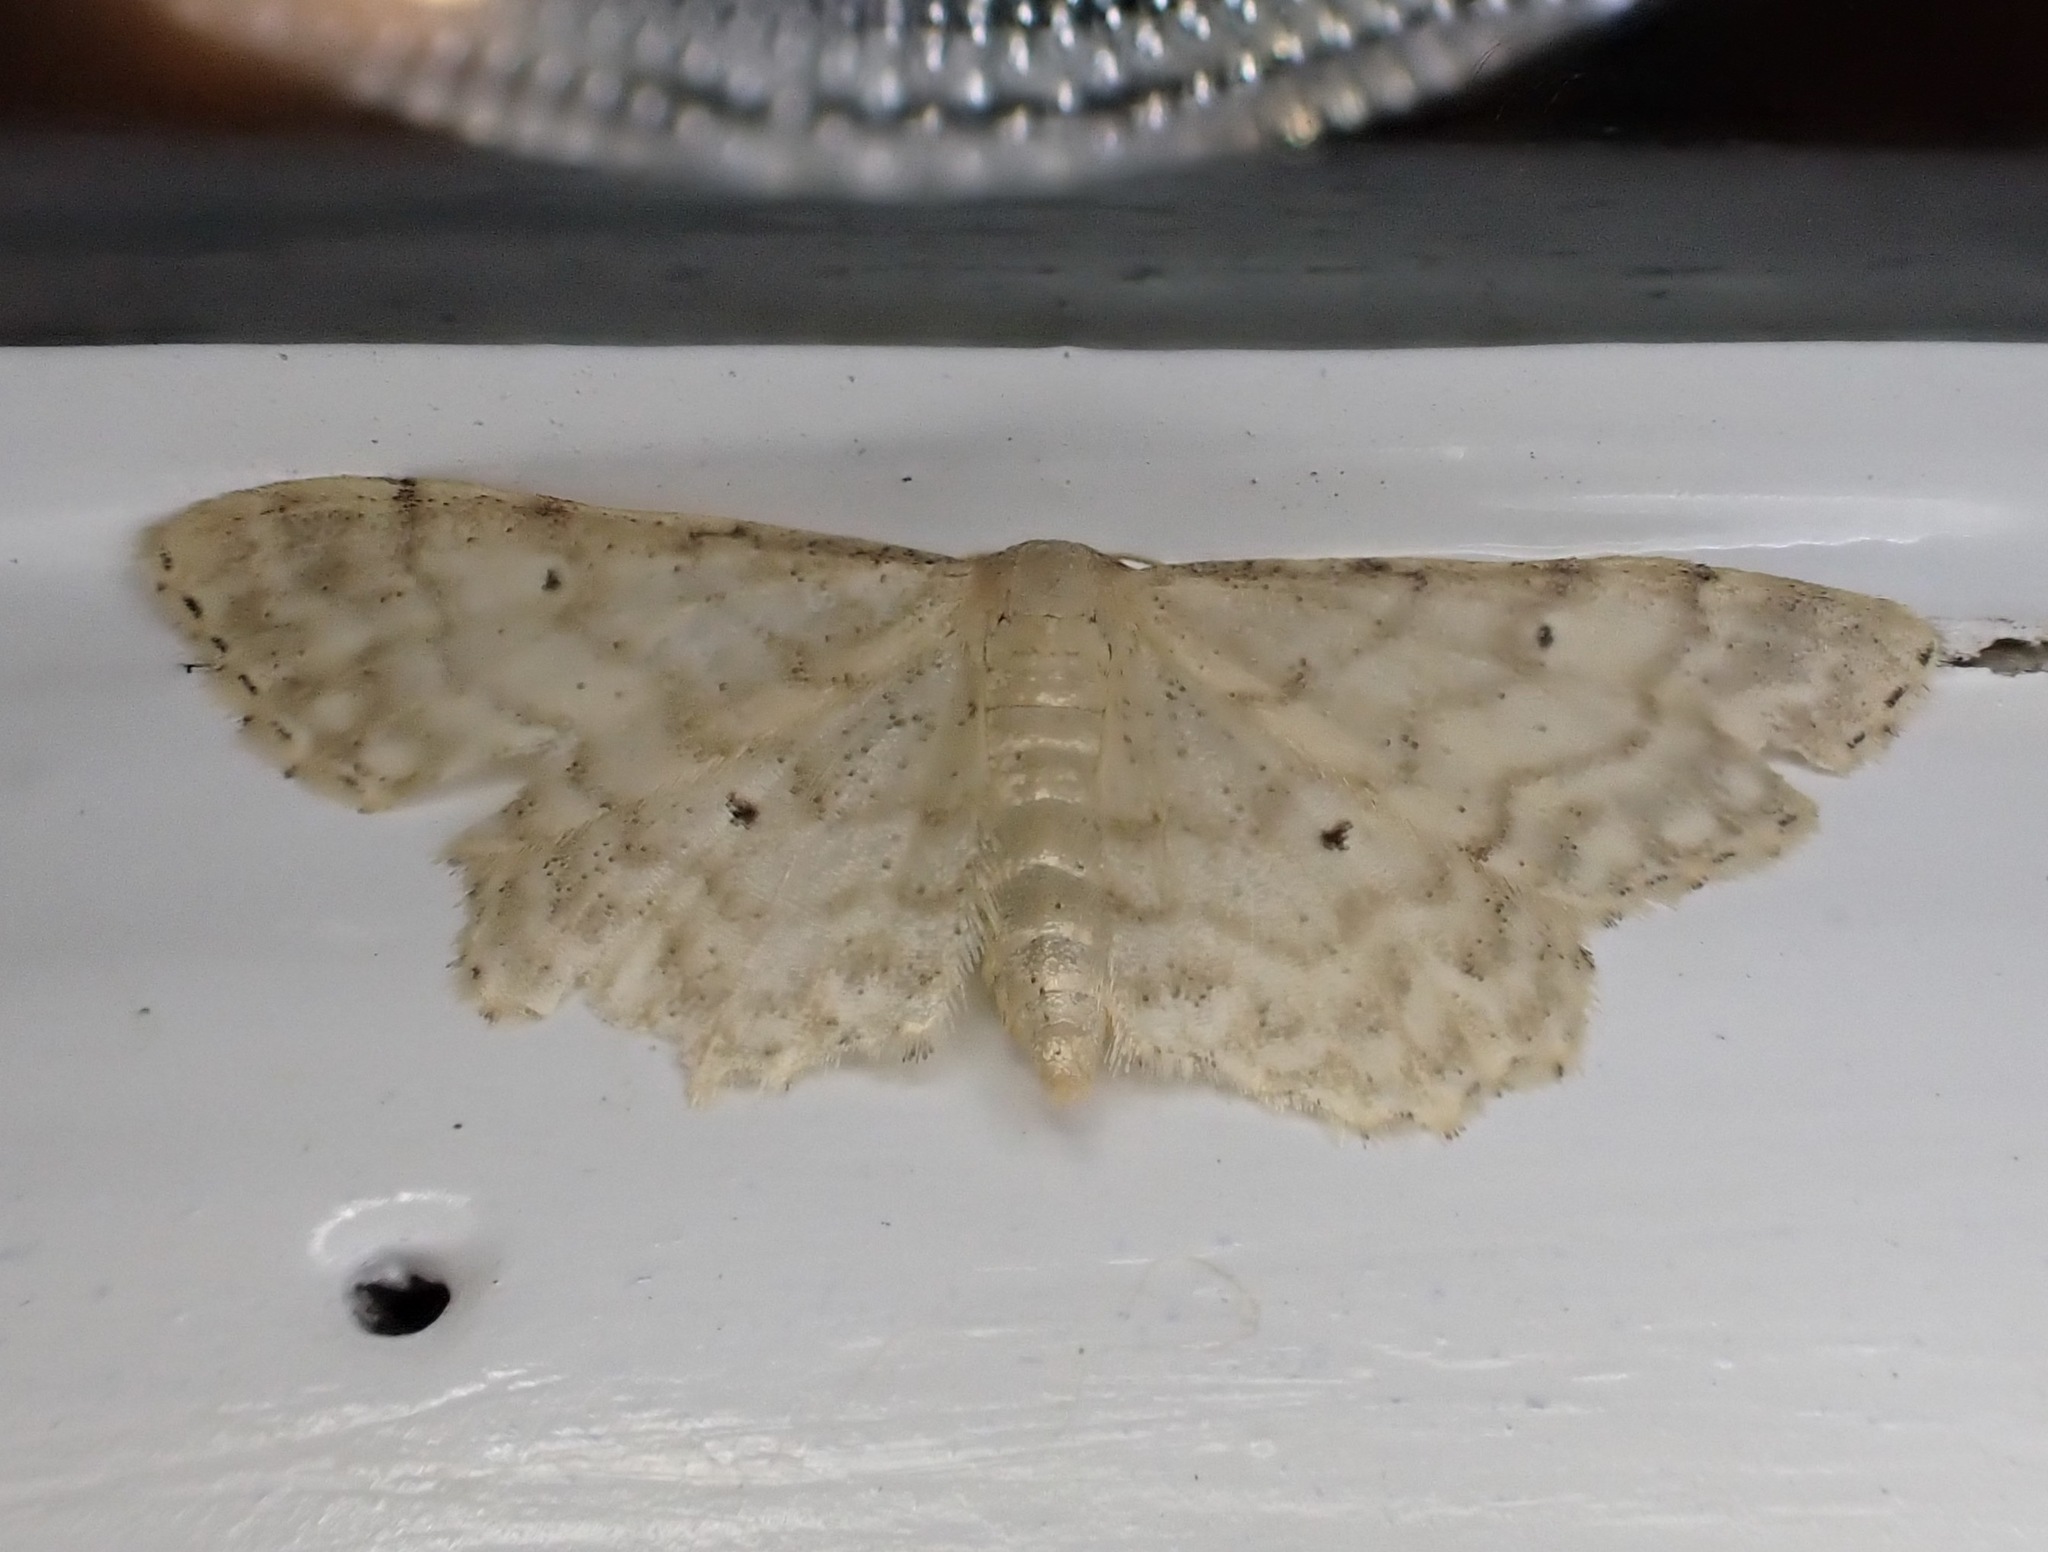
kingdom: Animalia
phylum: Arthropoda
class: Insecta
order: Lepidoptera
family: Geometridae
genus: Idaea
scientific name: Idaea fuscovenosa
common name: Dwarf cream wave
